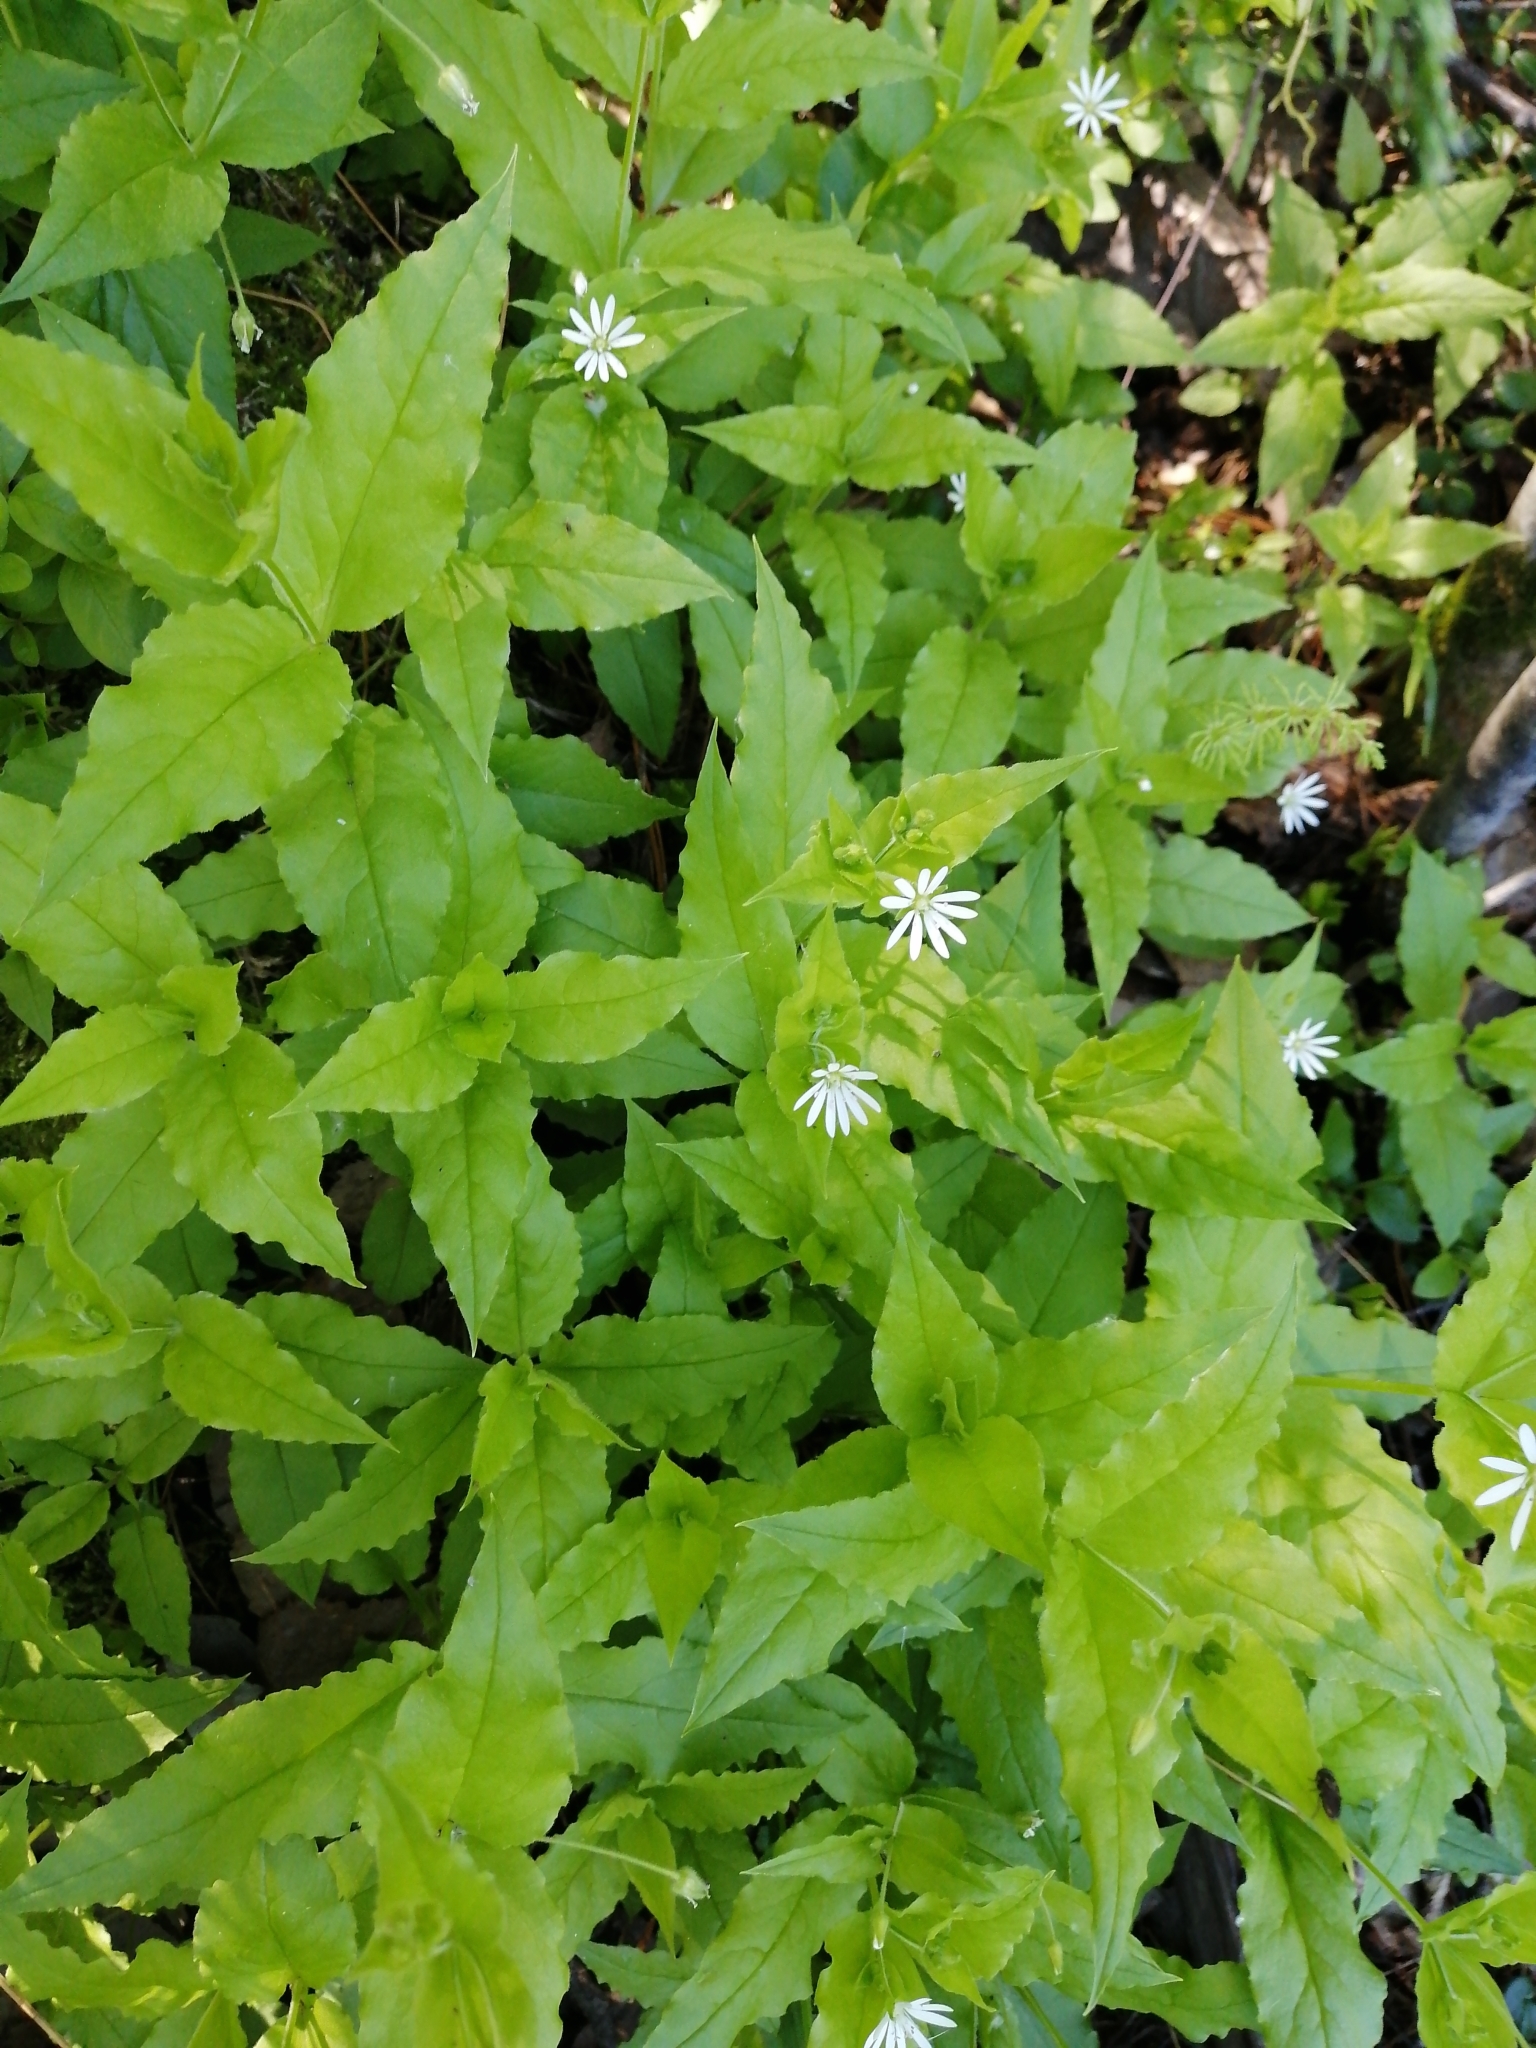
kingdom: Plantae
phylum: Tracheophyta
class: Magnoliopsida
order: Caryophyllales
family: Caryophyllaceae
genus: Stellaria
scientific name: Stellaria bungeana
